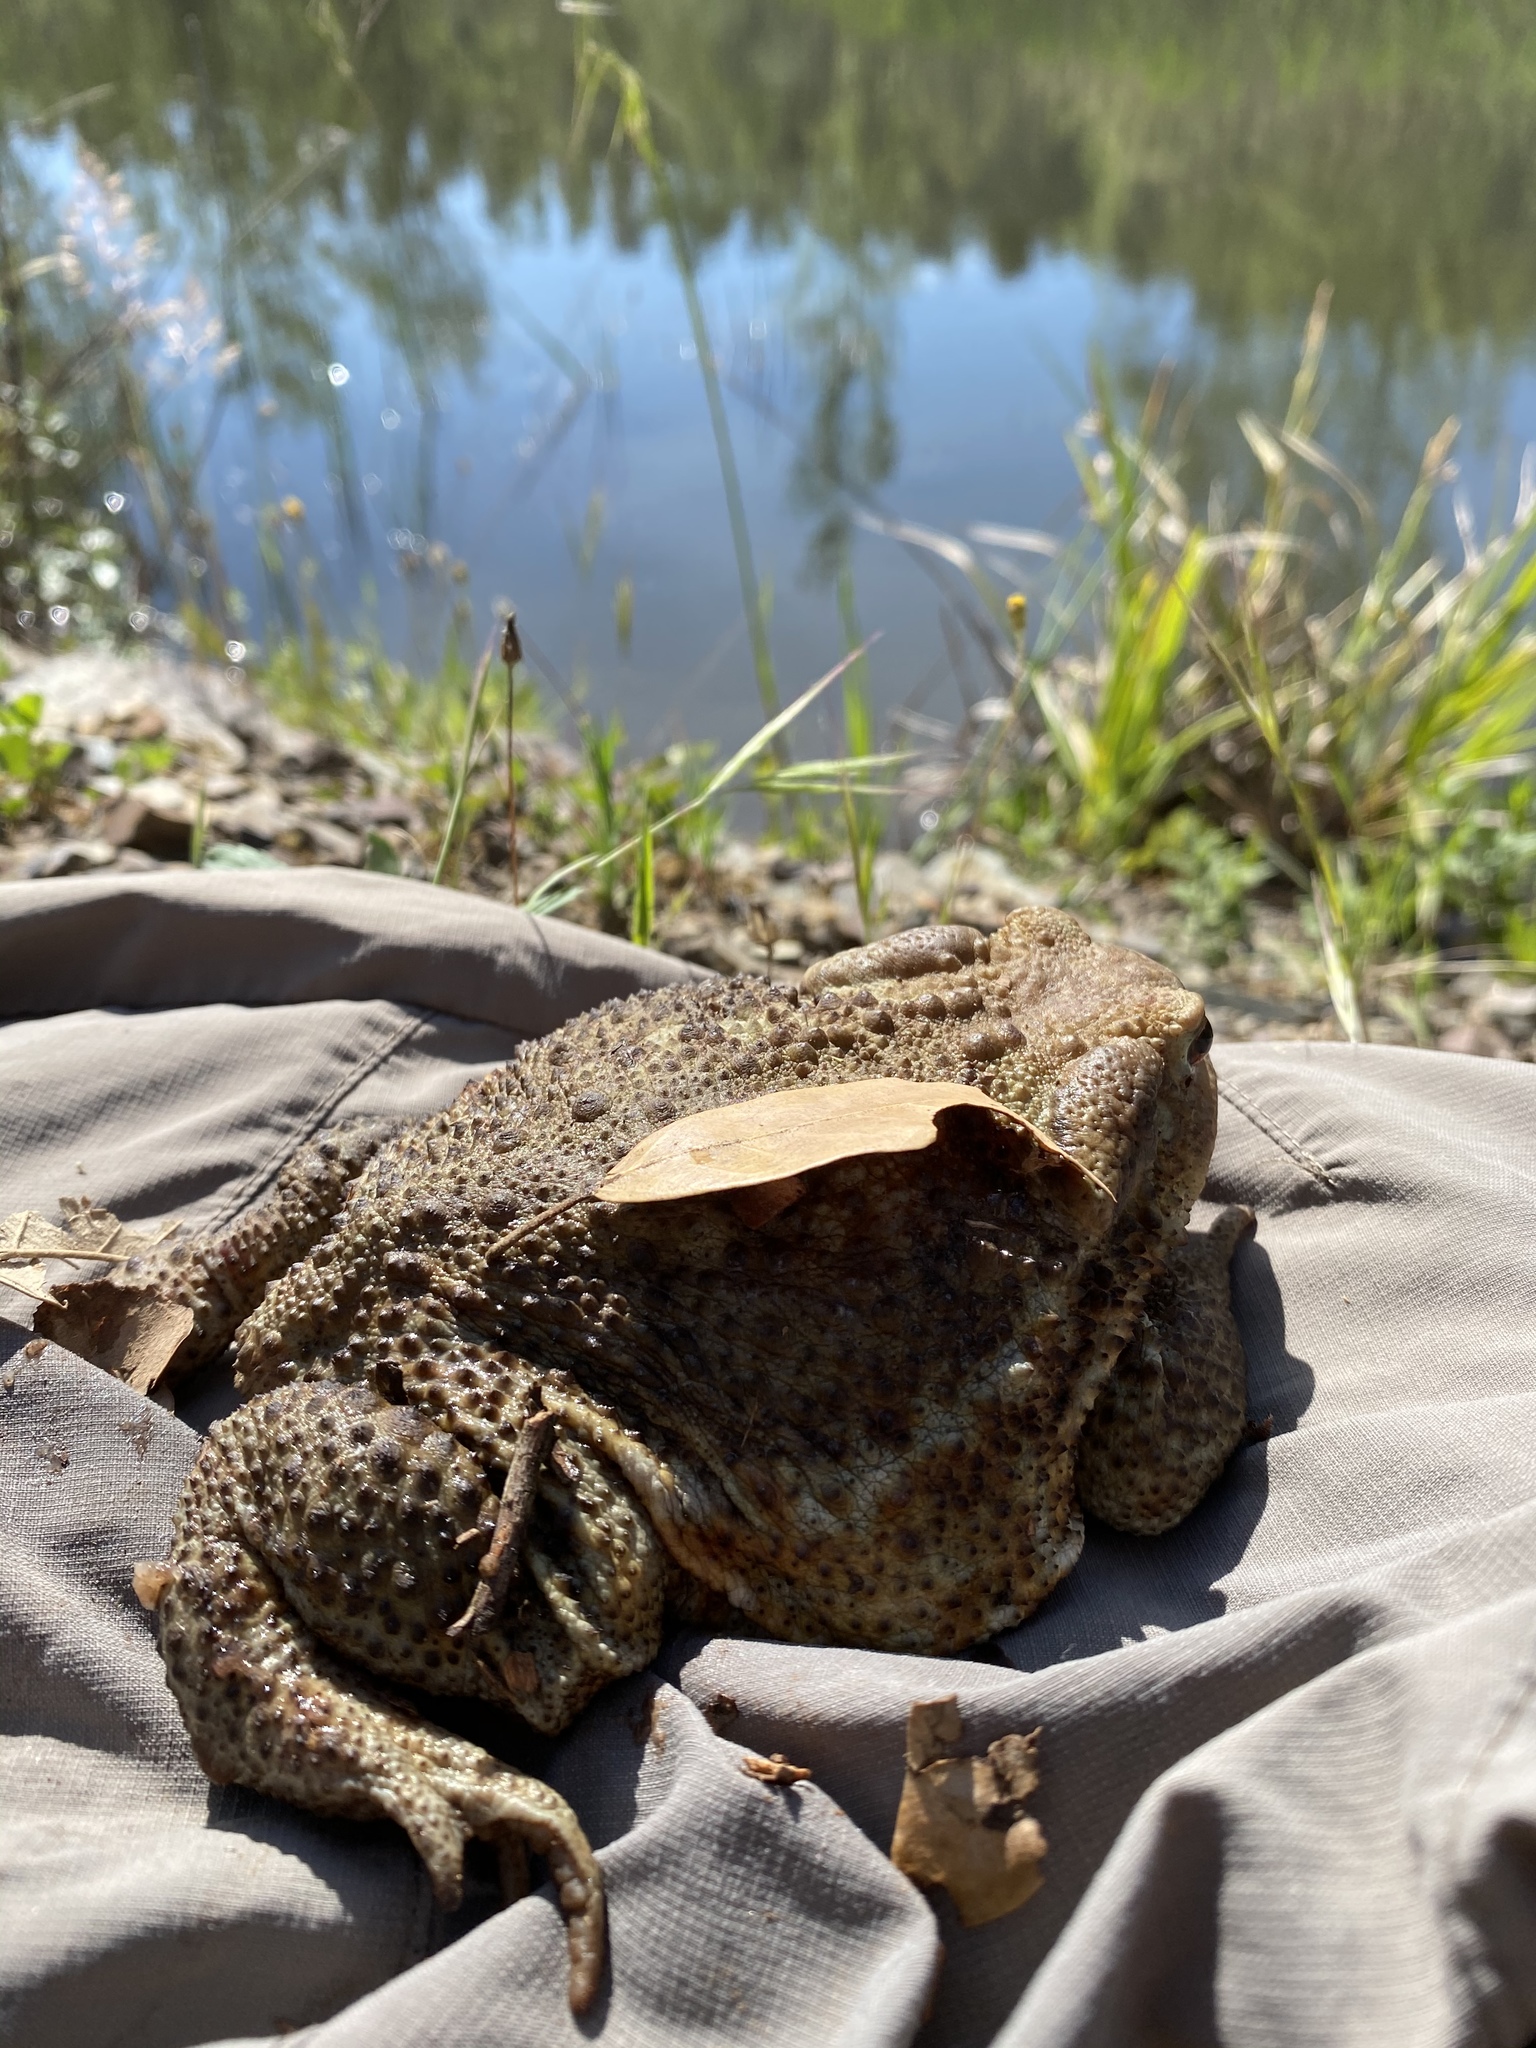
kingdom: Animalia
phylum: Chordata
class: Amphibia
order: Anura
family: Bufonidae
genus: Bufo
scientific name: Bufo bufo
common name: Common toad
